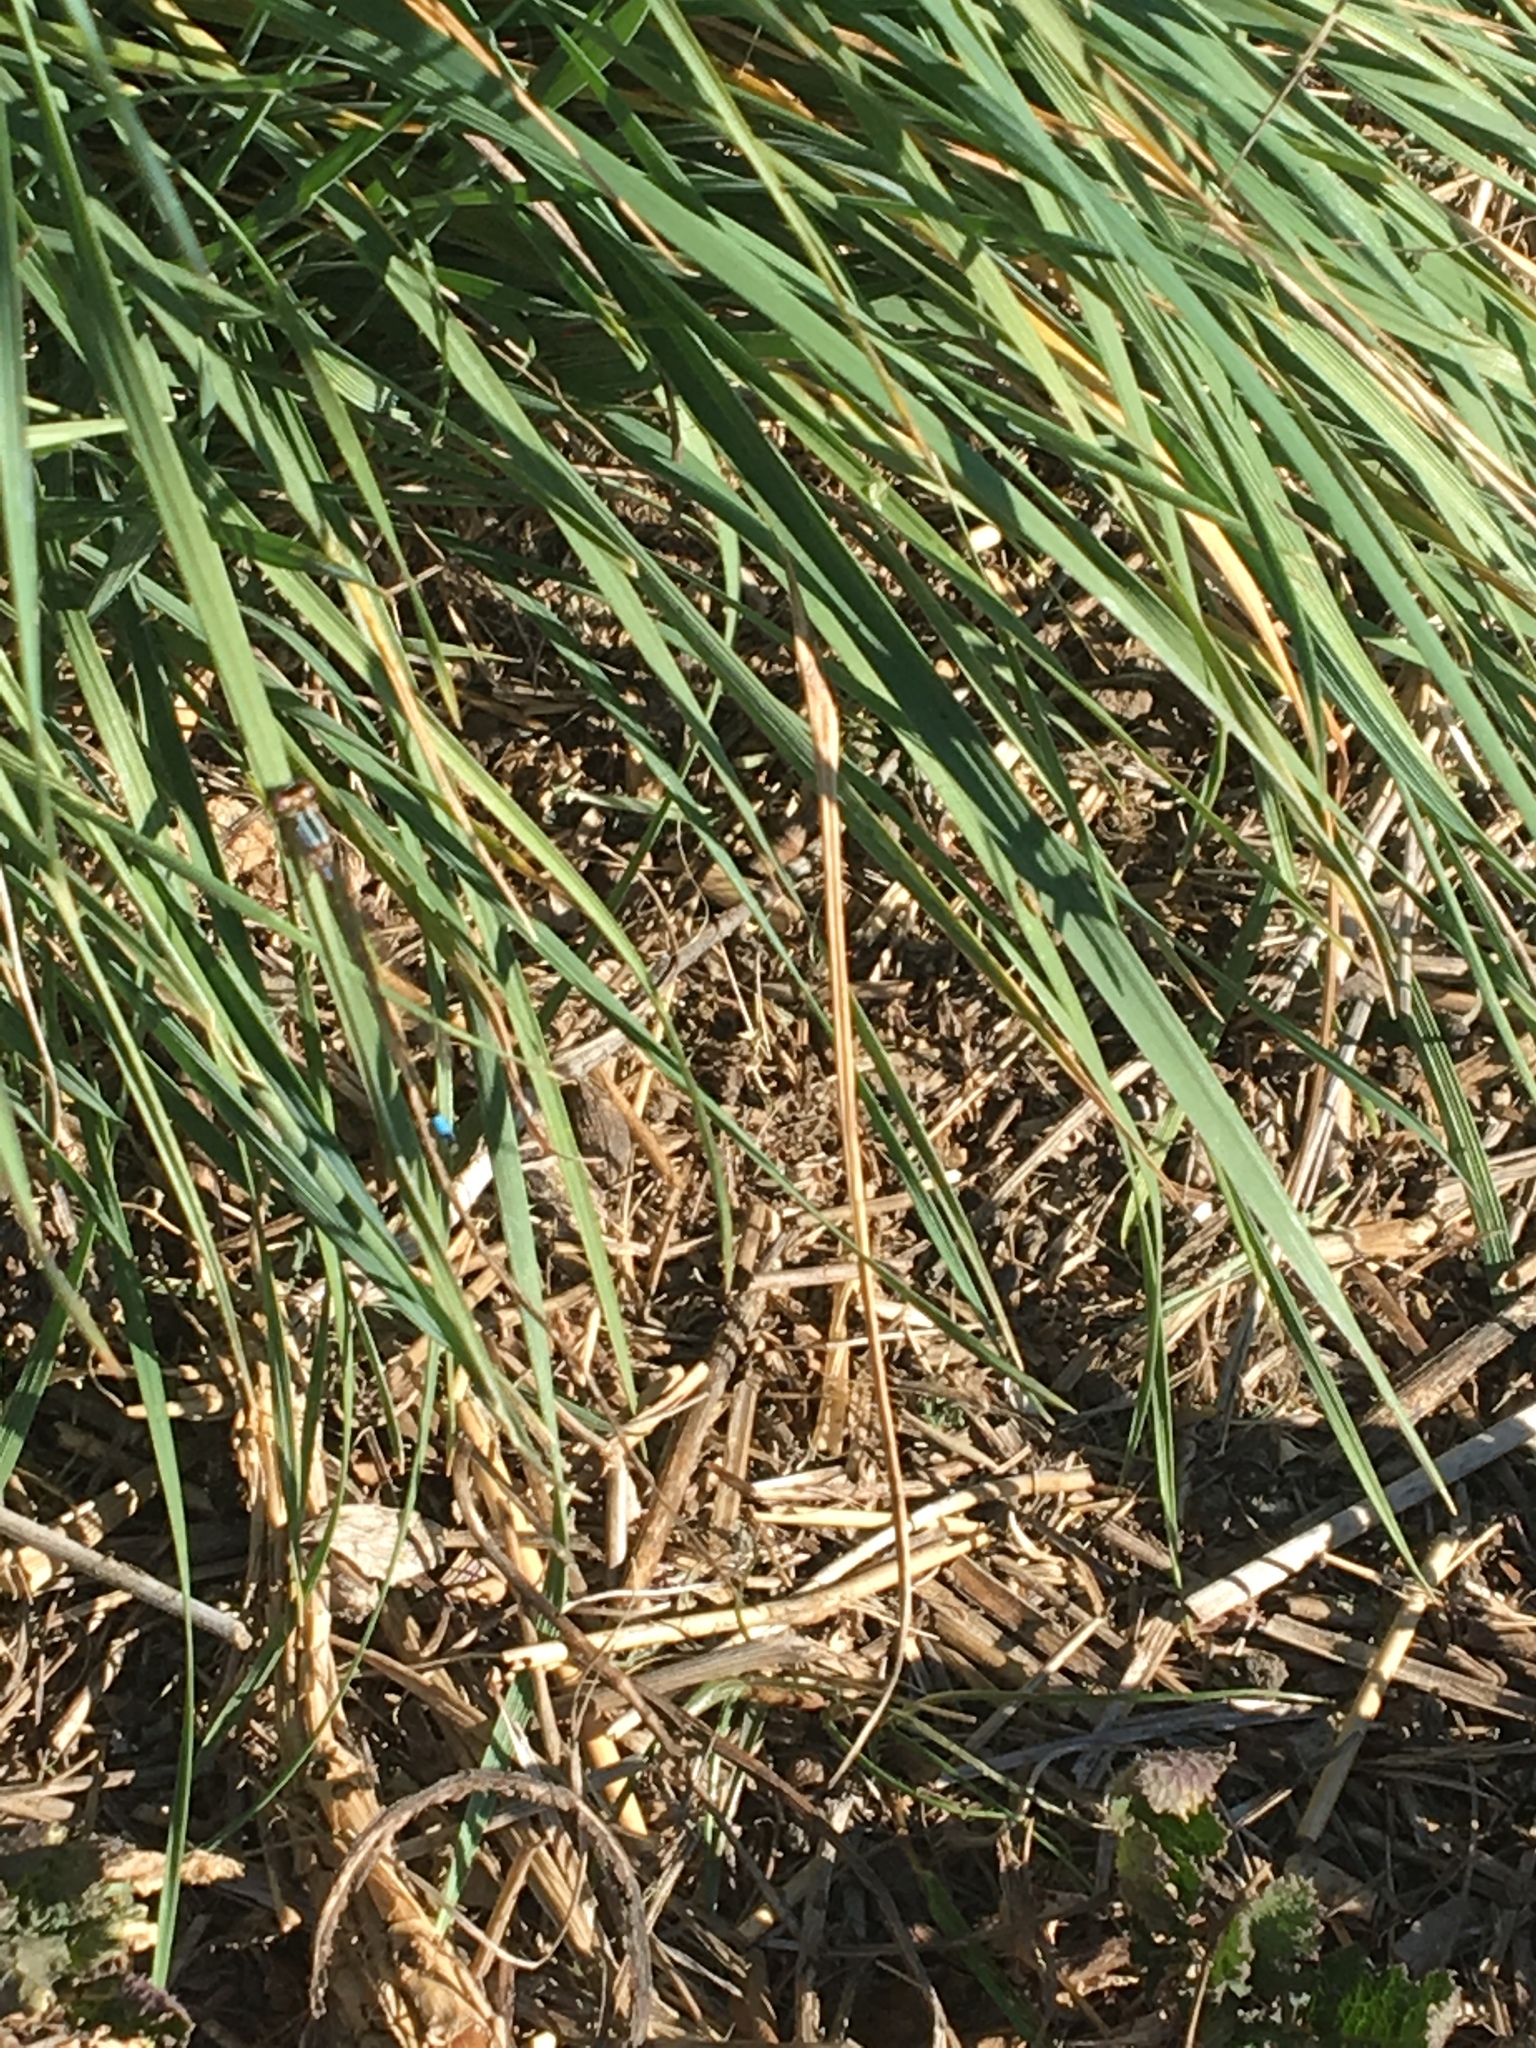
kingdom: Animalia
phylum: Arthropoda
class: Insecta
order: Odonata
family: Coenagrionidae
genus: Ischnura
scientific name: Ischnura cervula
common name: Pacific forktail
